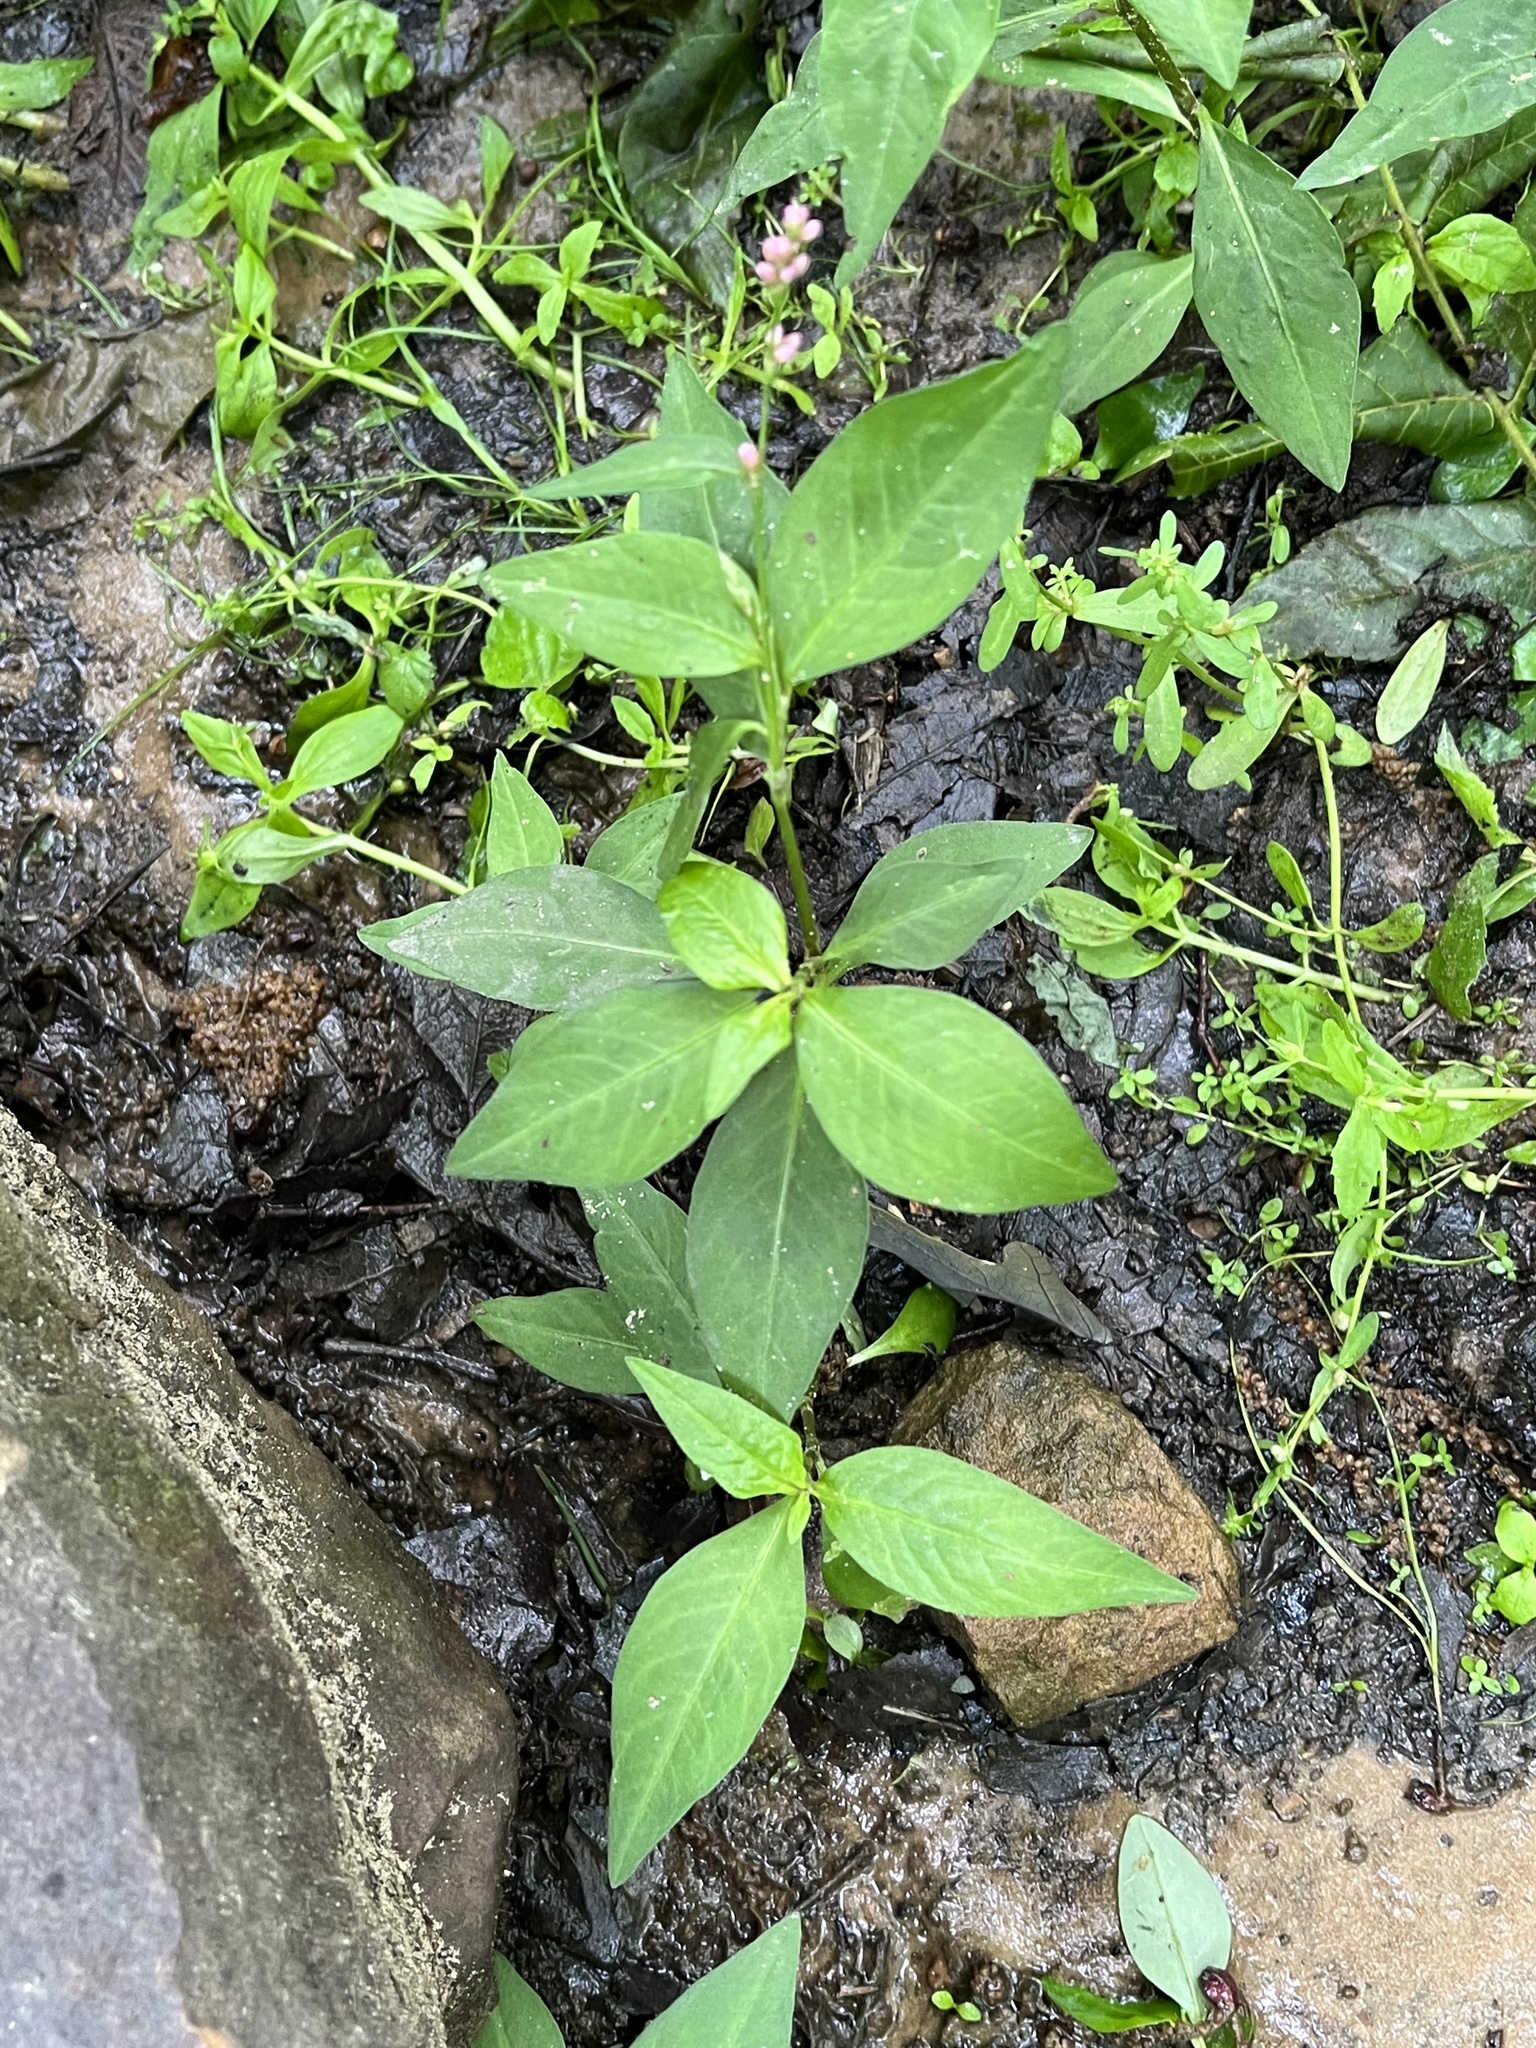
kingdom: Plantae
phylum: Tracheophyta
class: Magnoliopsida
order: Caryophyllales
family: Polygonaceae
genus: Persicaria
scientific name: Persicaria longiseta
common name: Bristly lady's-thumb
